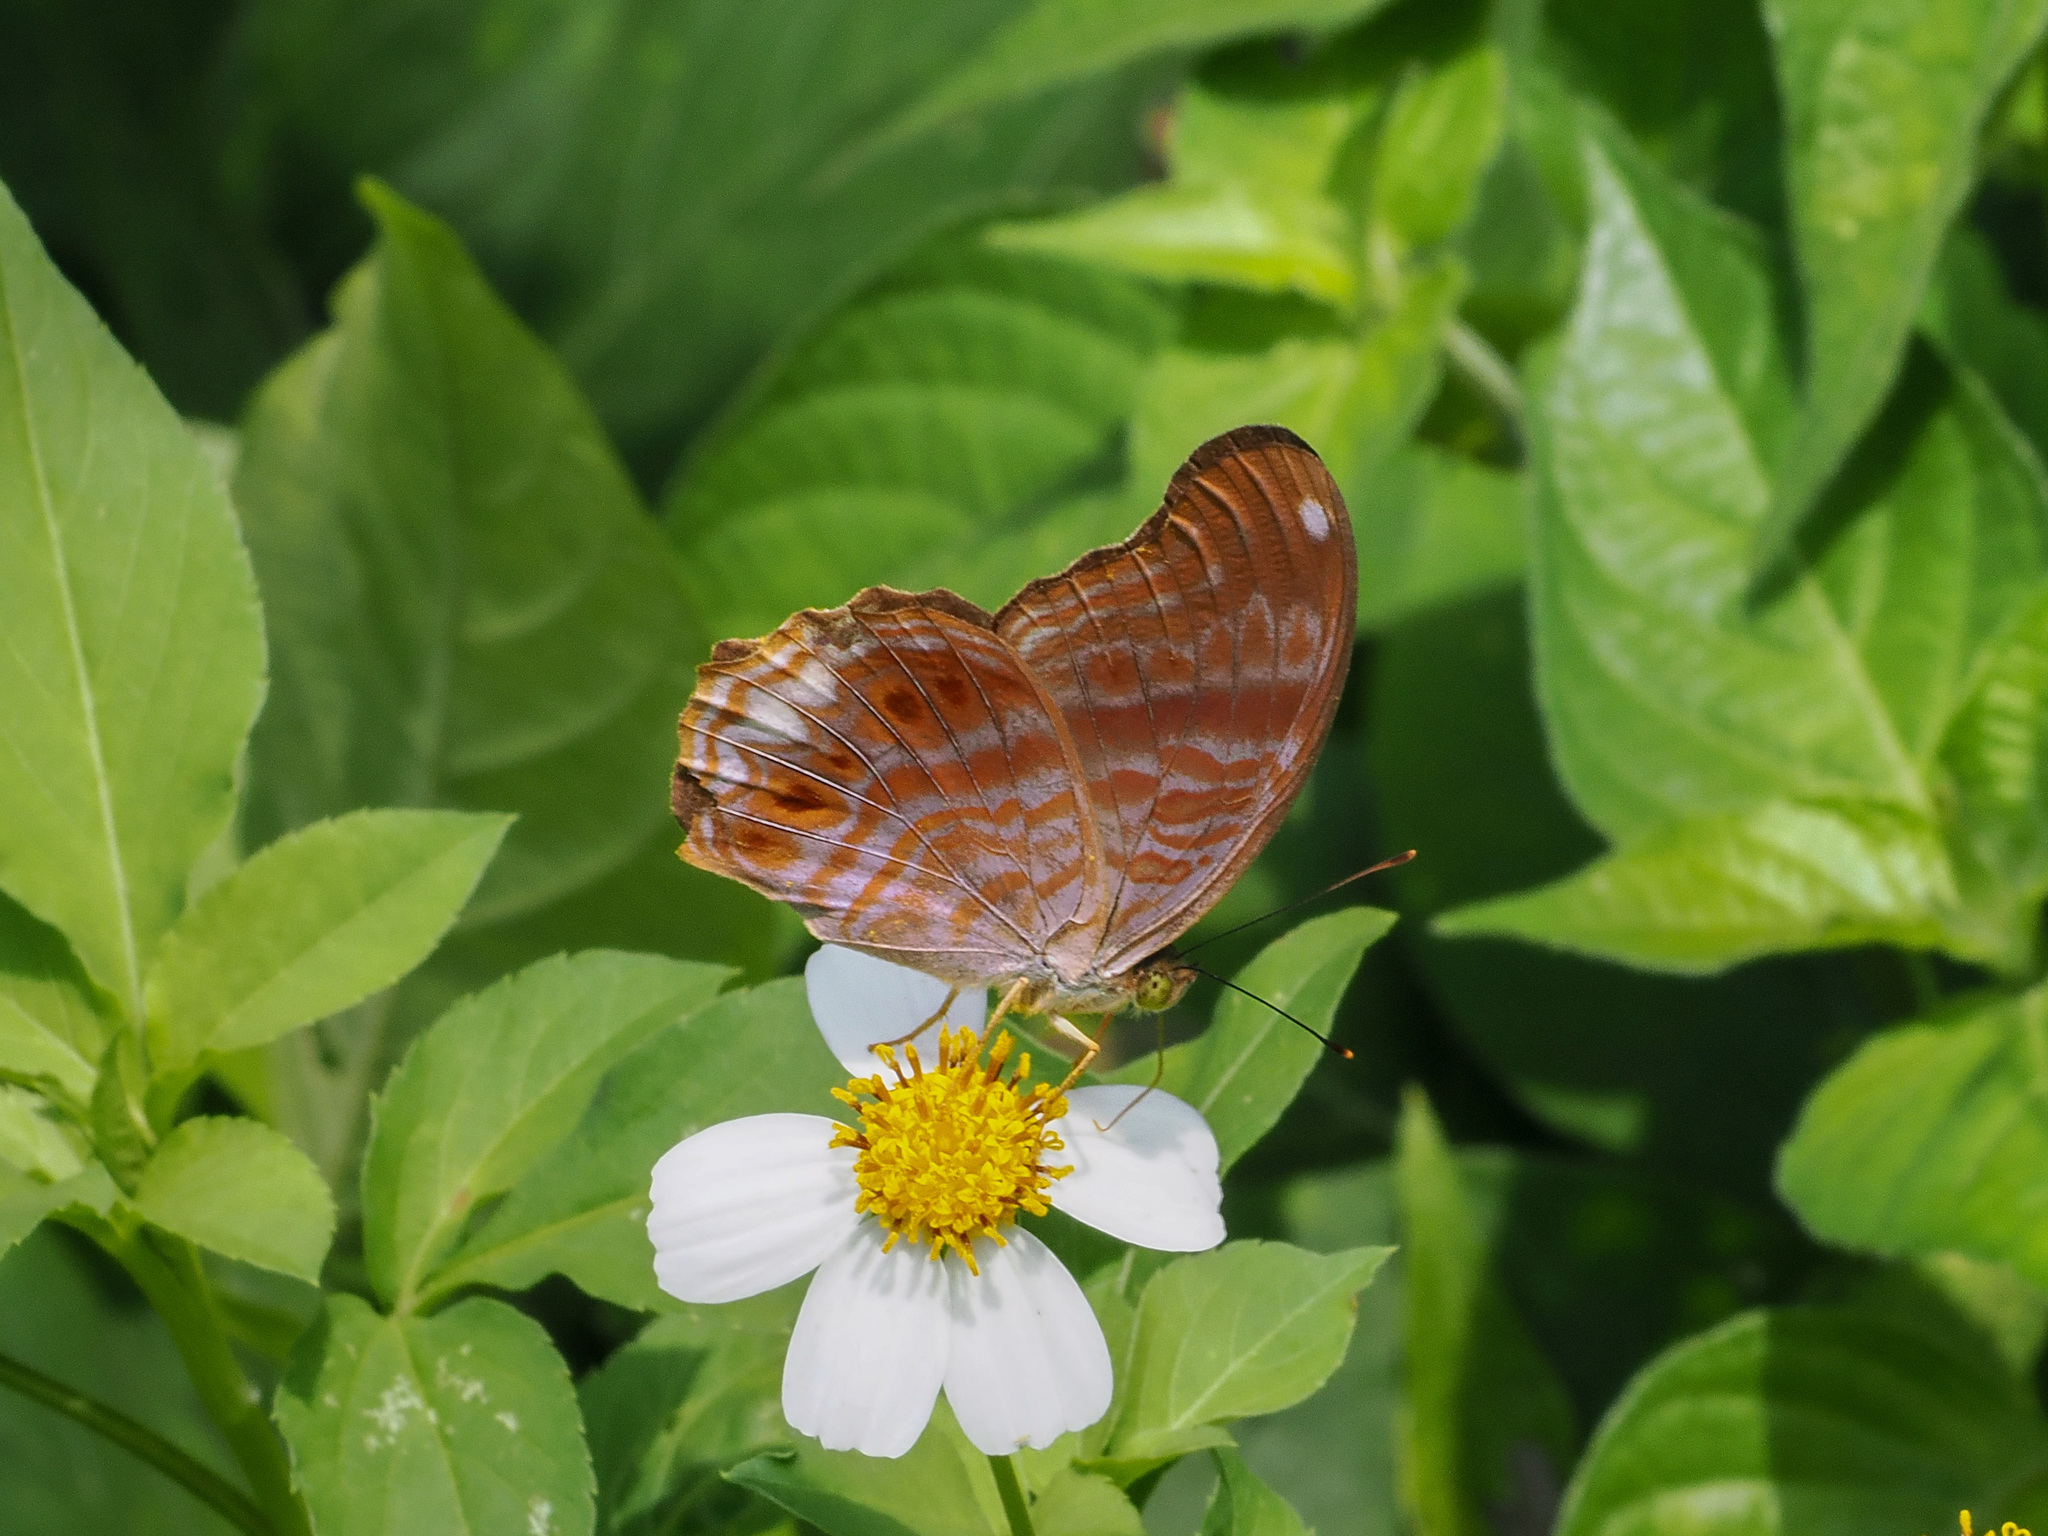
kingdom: Animalia
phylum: Arthropoda
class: Insecta
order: Lepidoptera
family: Nymphalidae
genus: Terinos
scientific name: Terinos terpander
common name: Royal assyrian
